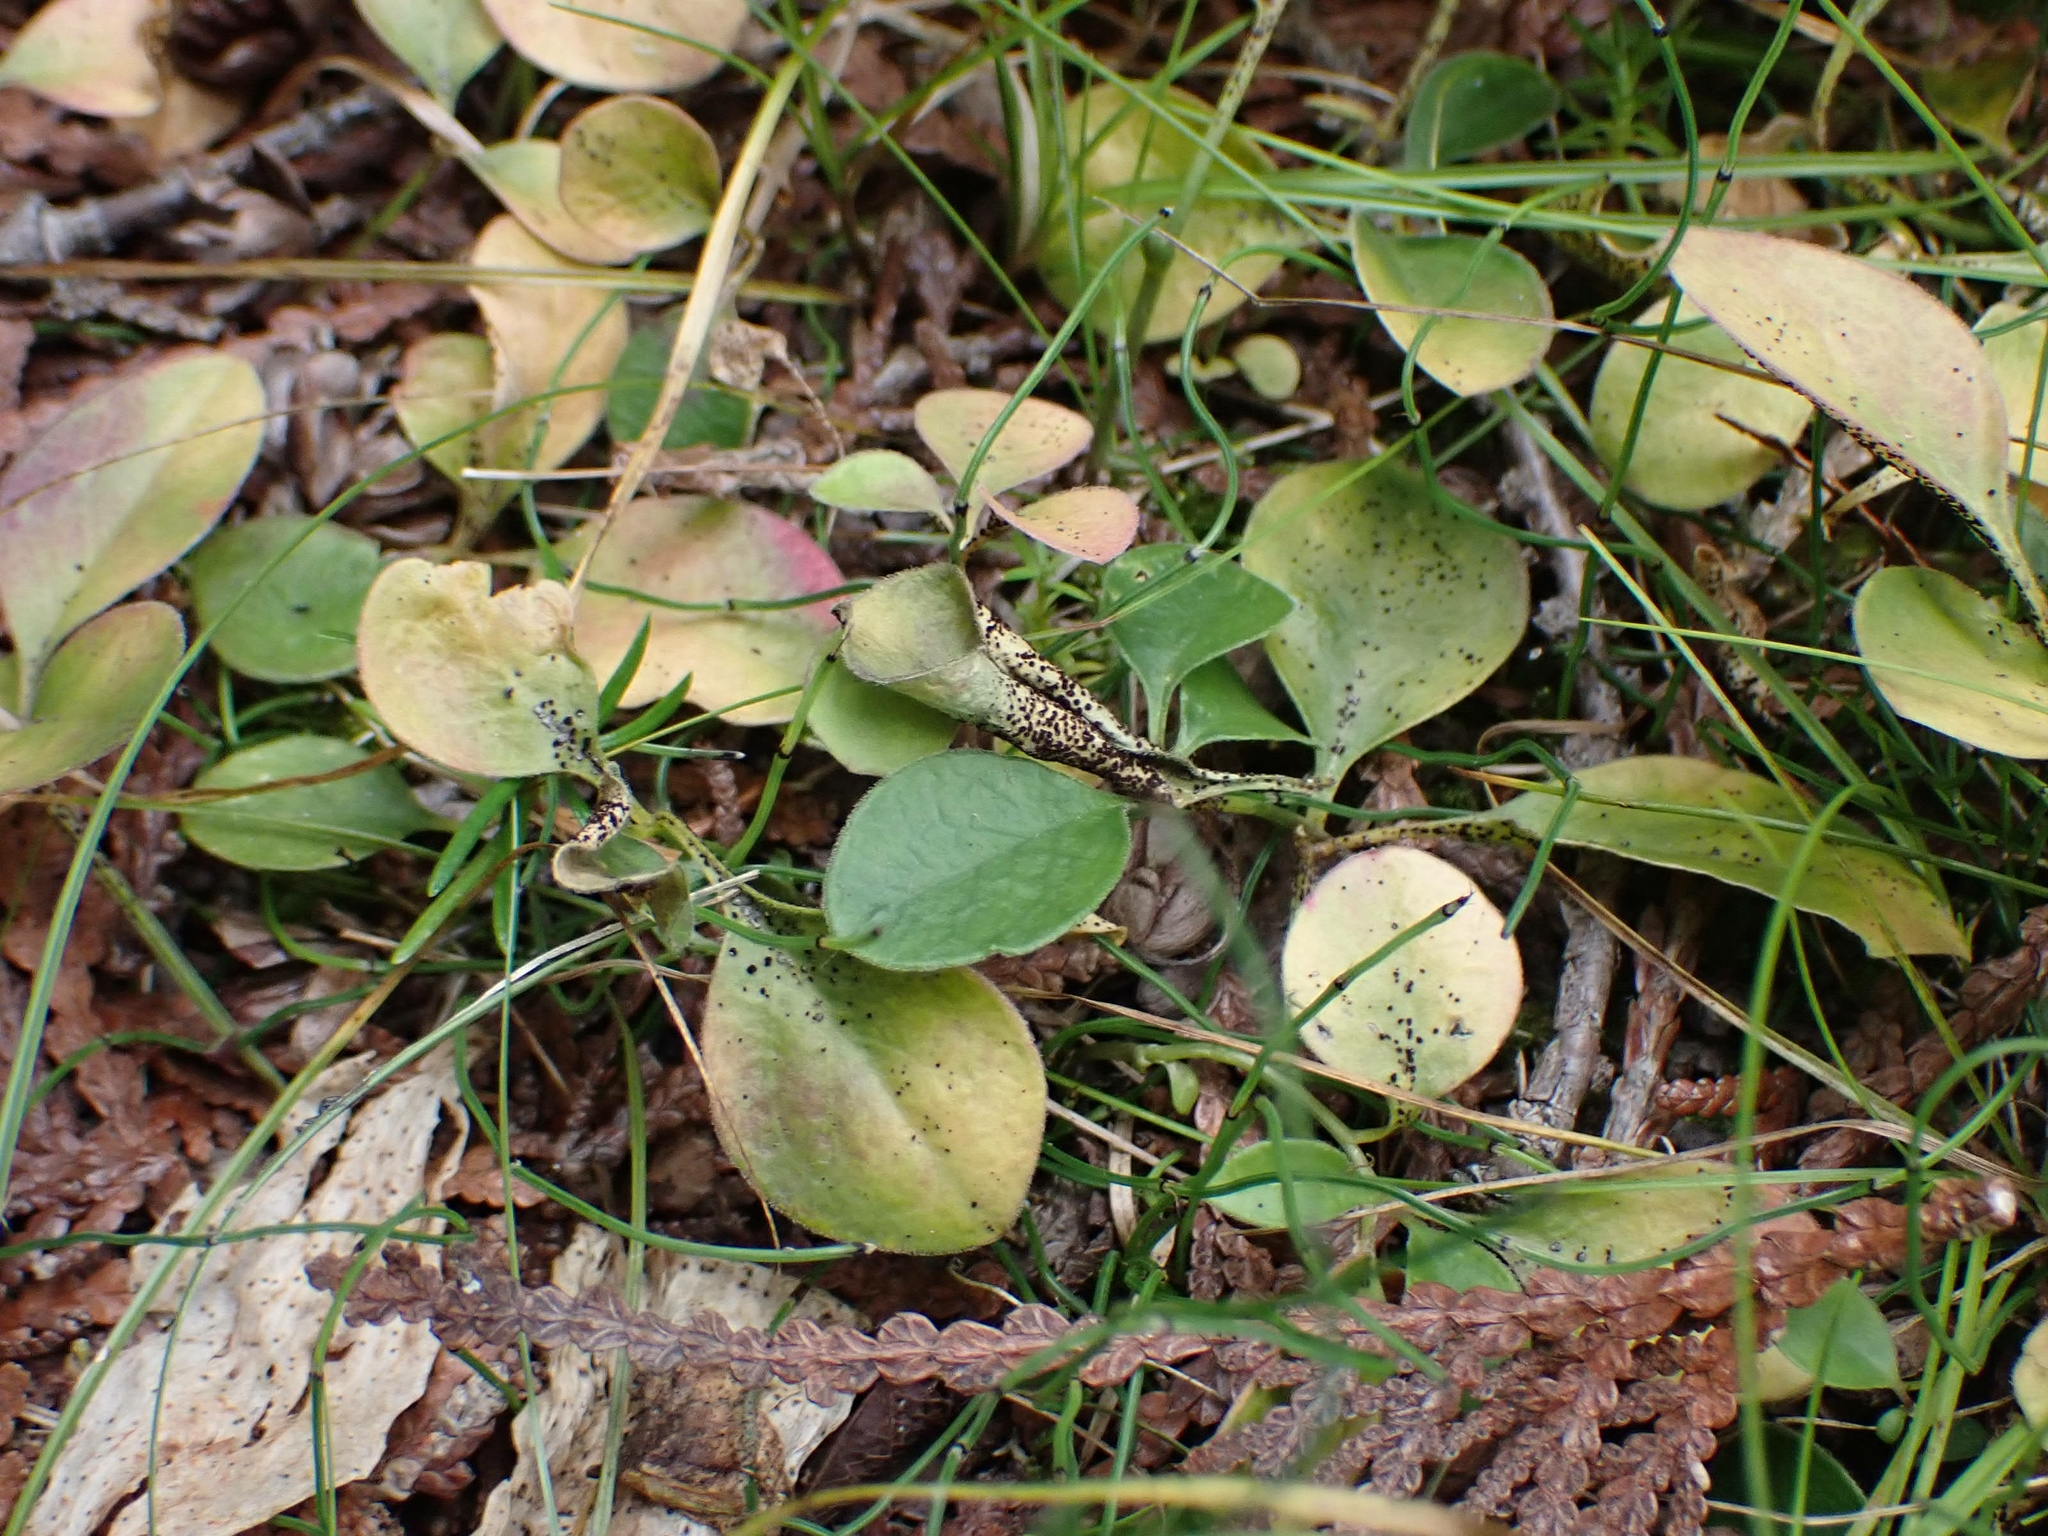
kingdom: Plantae
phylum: Tracheophyta
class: Magnoliopsida
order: Fabales
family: Polygalaceae
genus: Polygaloides
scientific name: Polygaloides paucifolia
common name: Bird-on-the-wing
